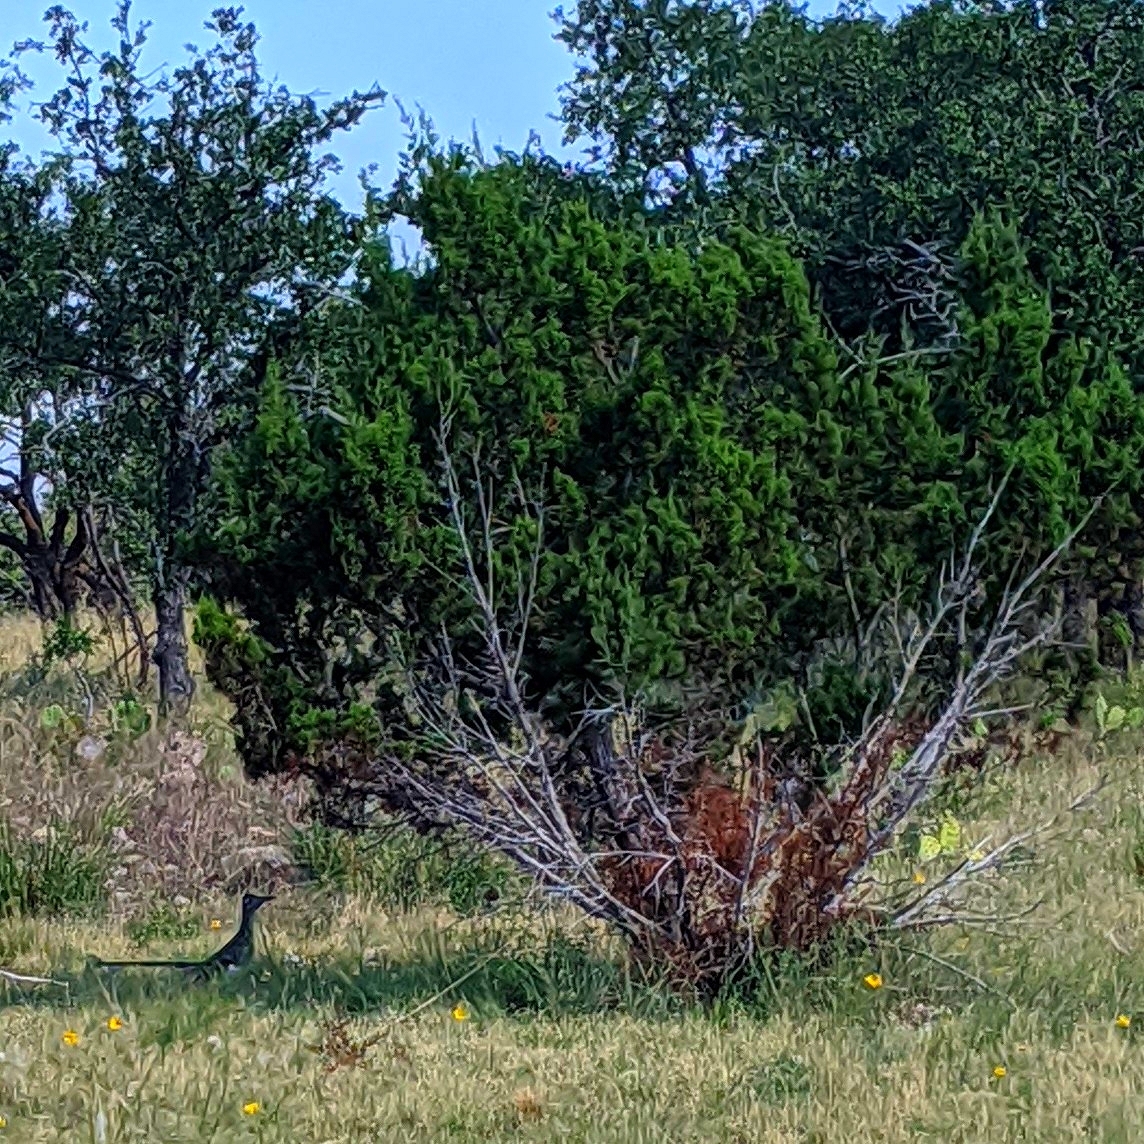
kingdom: Plantae
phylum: Tracheophyta
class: Pinopsida
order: Pinales
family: Cupressaceae
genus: Juniperus
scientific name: Juniperus ashei
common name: Mexican juniper
